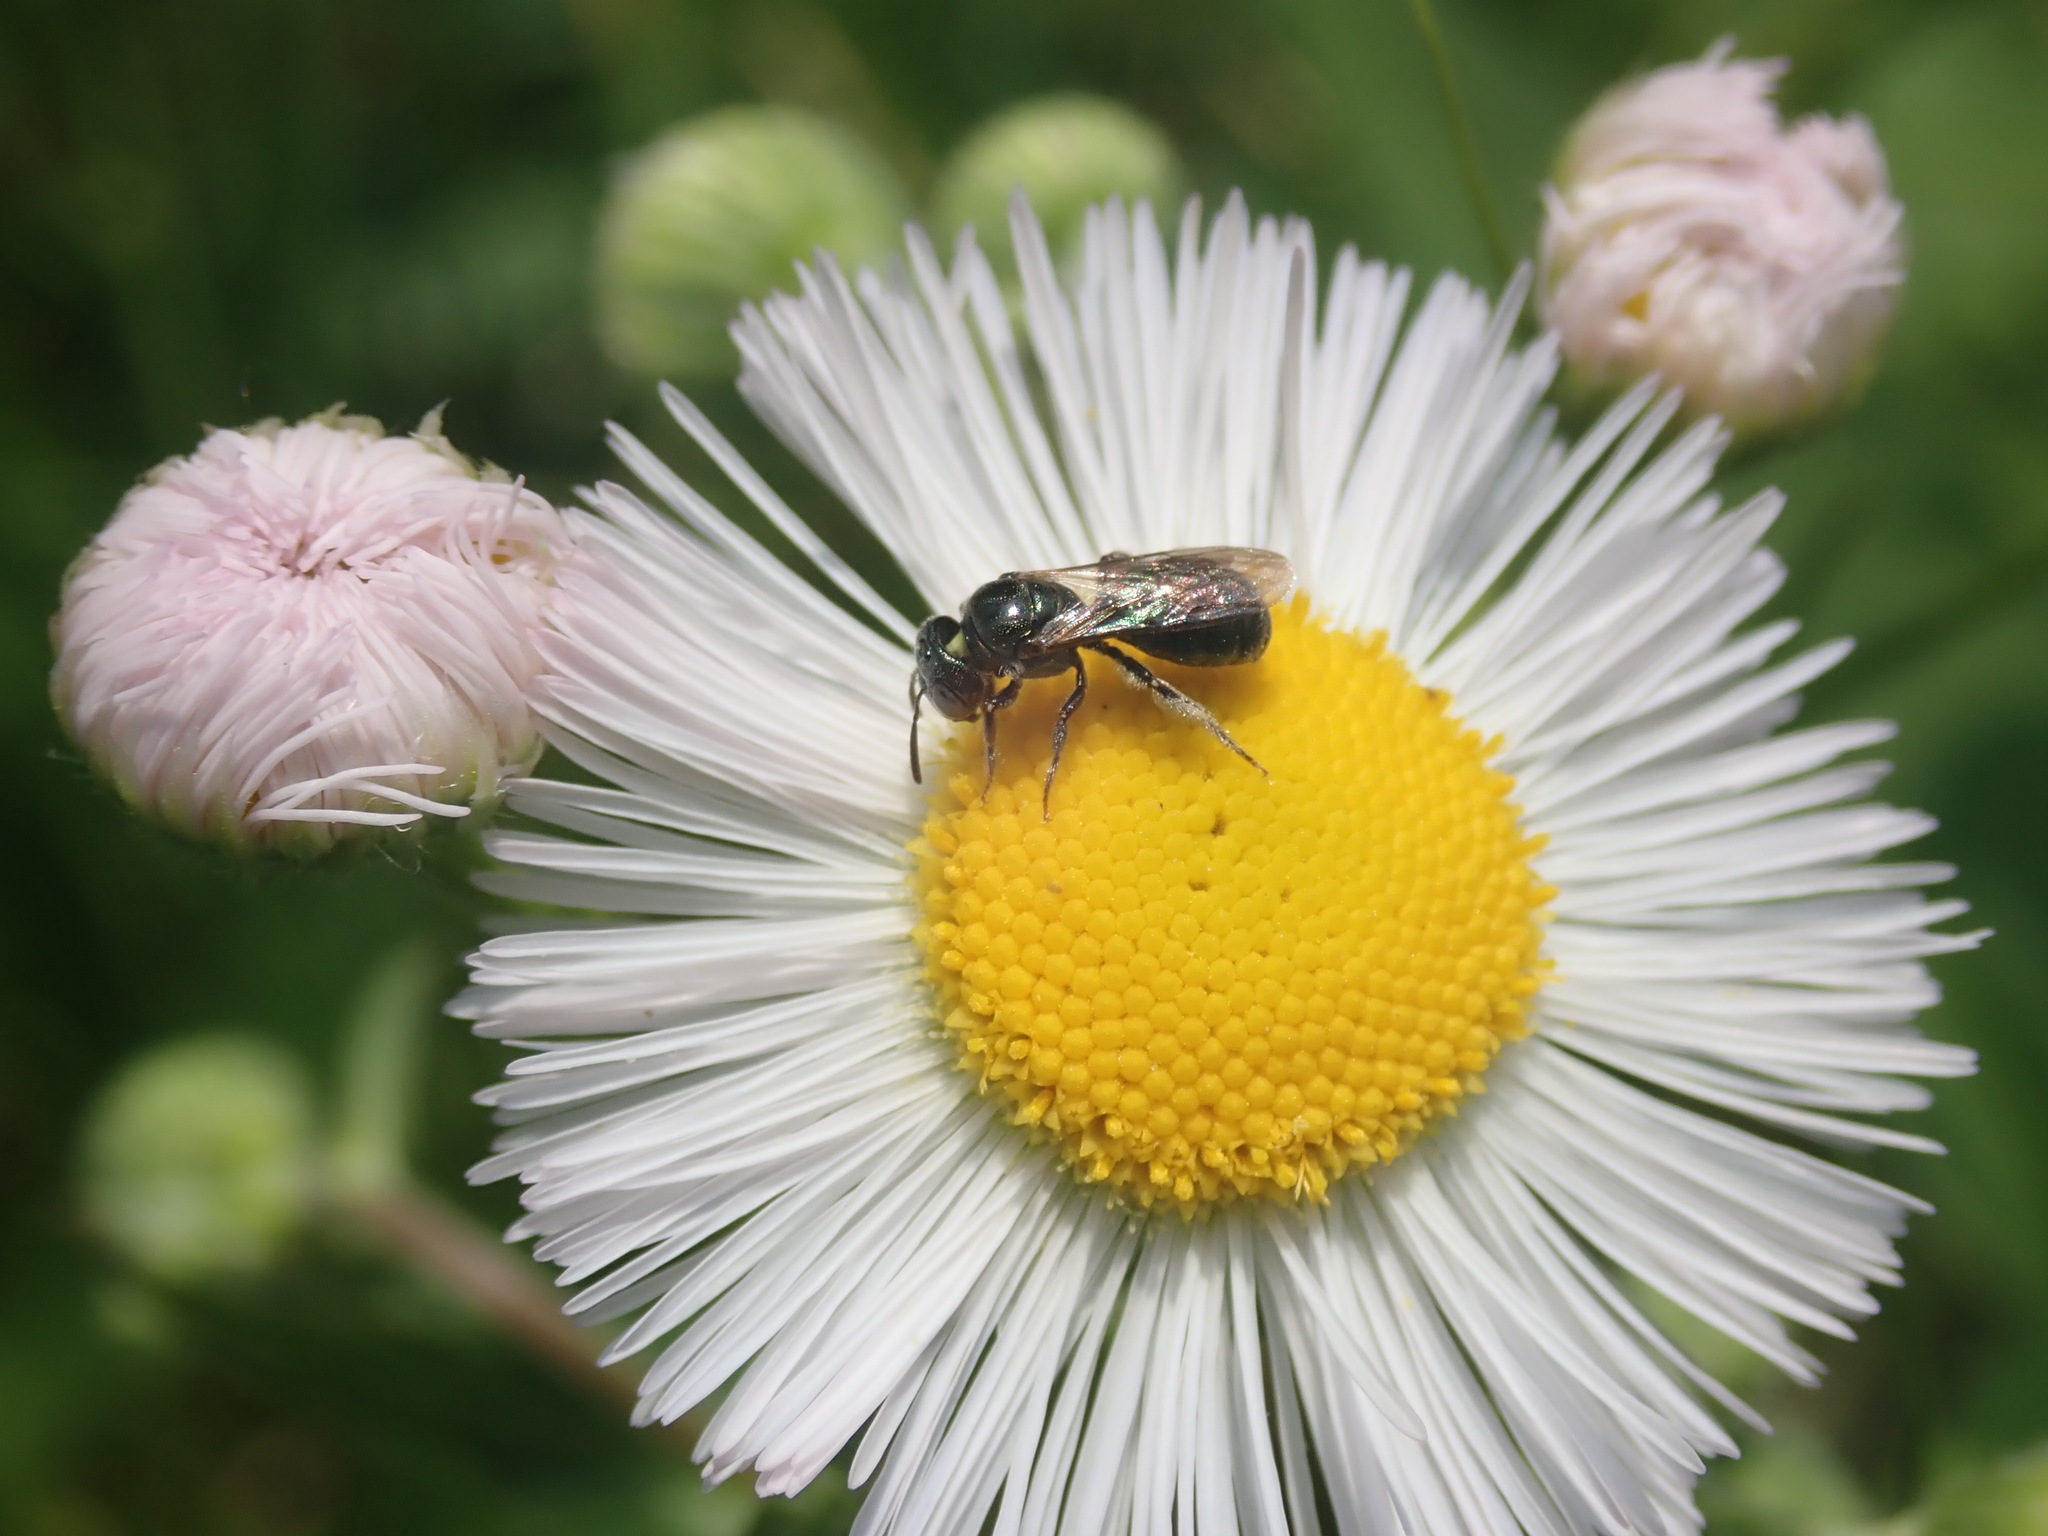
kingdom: Animalia
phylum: Arthropoda
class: Insecta
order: Hymenoptera
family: Apidae
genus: Zadontomerus
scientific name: Zadontomerus
